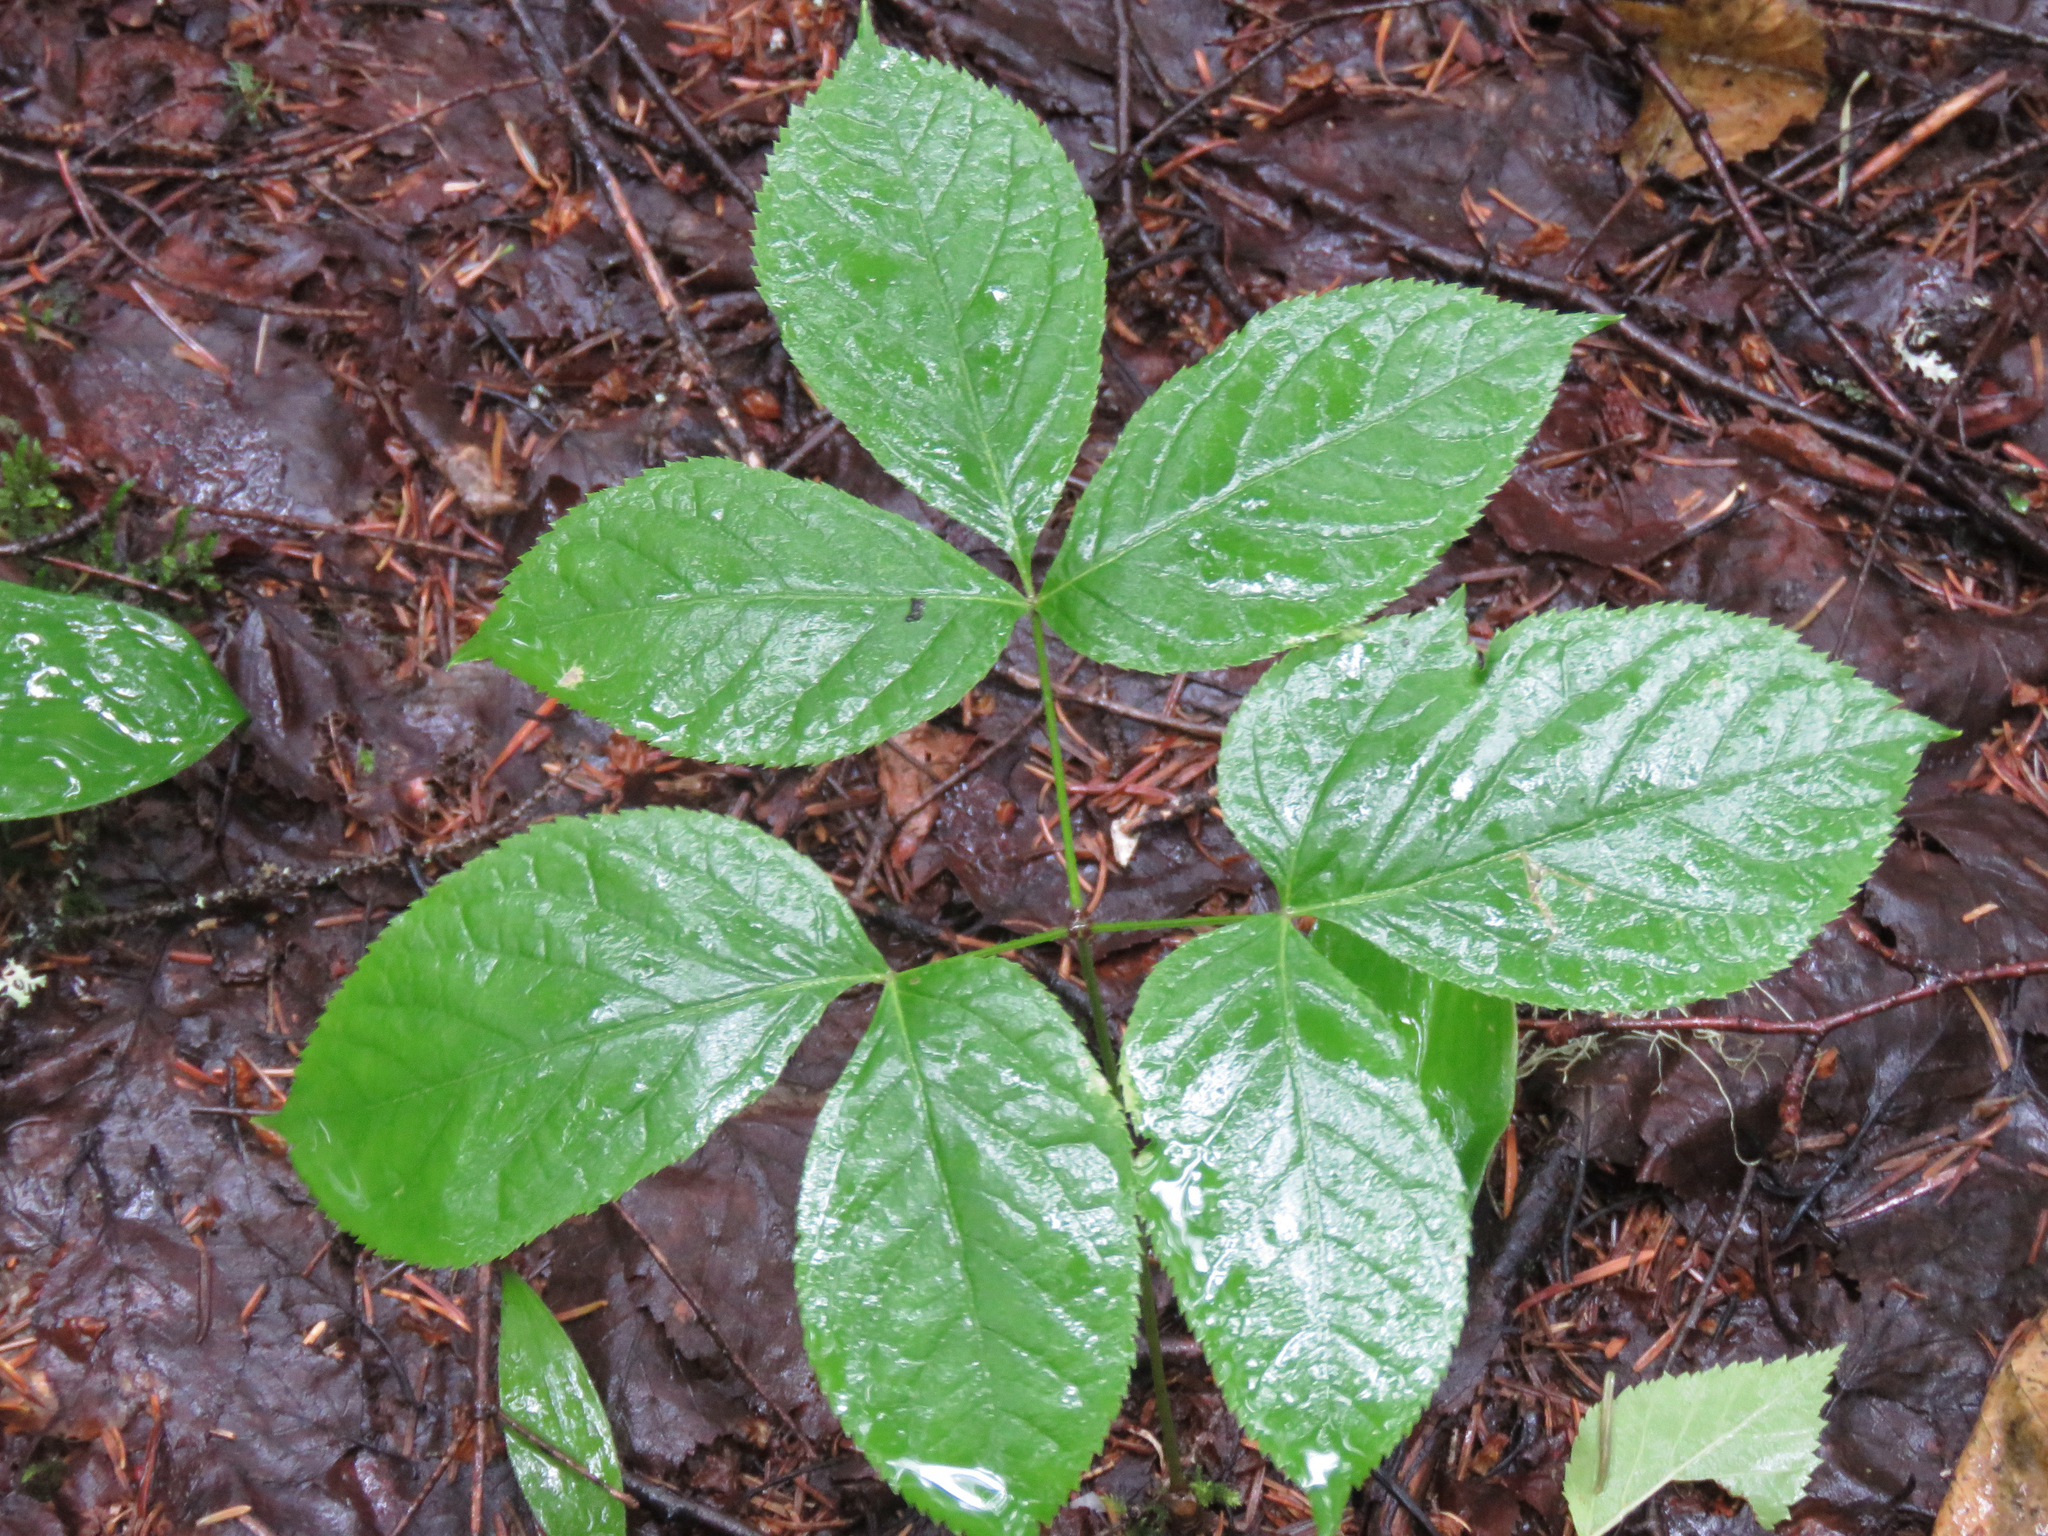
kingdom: Plantae
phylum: Tracheophyta
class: Magnoliopsida
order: Apiales
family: Araliaceae
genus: Aralia
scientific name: Aralia nudicaulis
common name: Wild sarsaparilla
